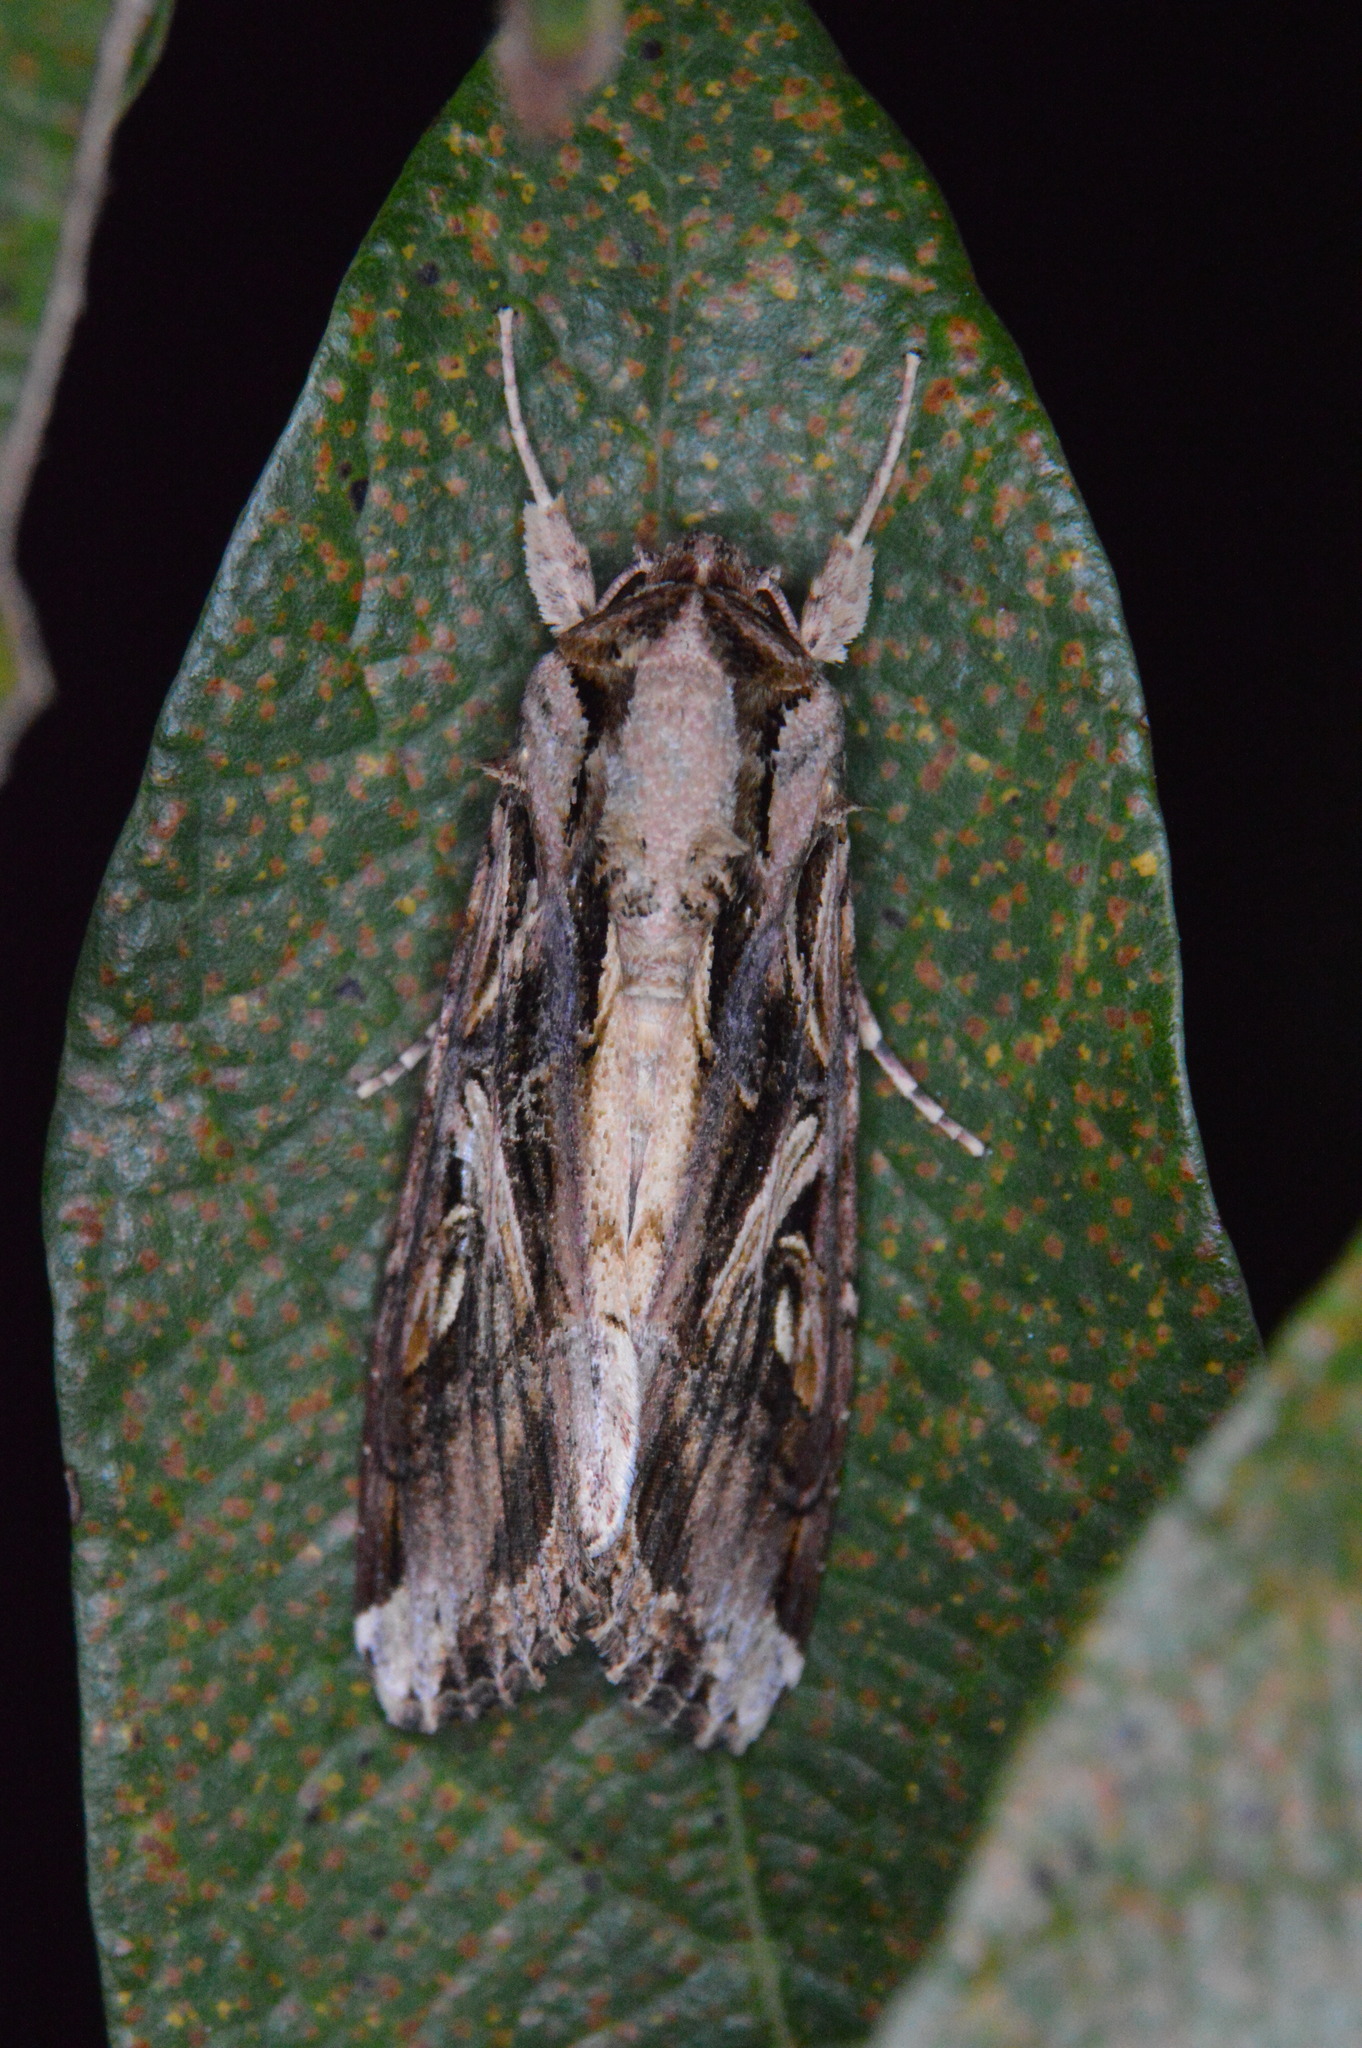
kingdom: Animalia
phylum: Arthropoda
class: Insecta
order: Lepidoptera
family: Noctuidae
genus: Spodoptera
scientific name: Spodoptera dolichos
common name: Sweetpotato armyworm
